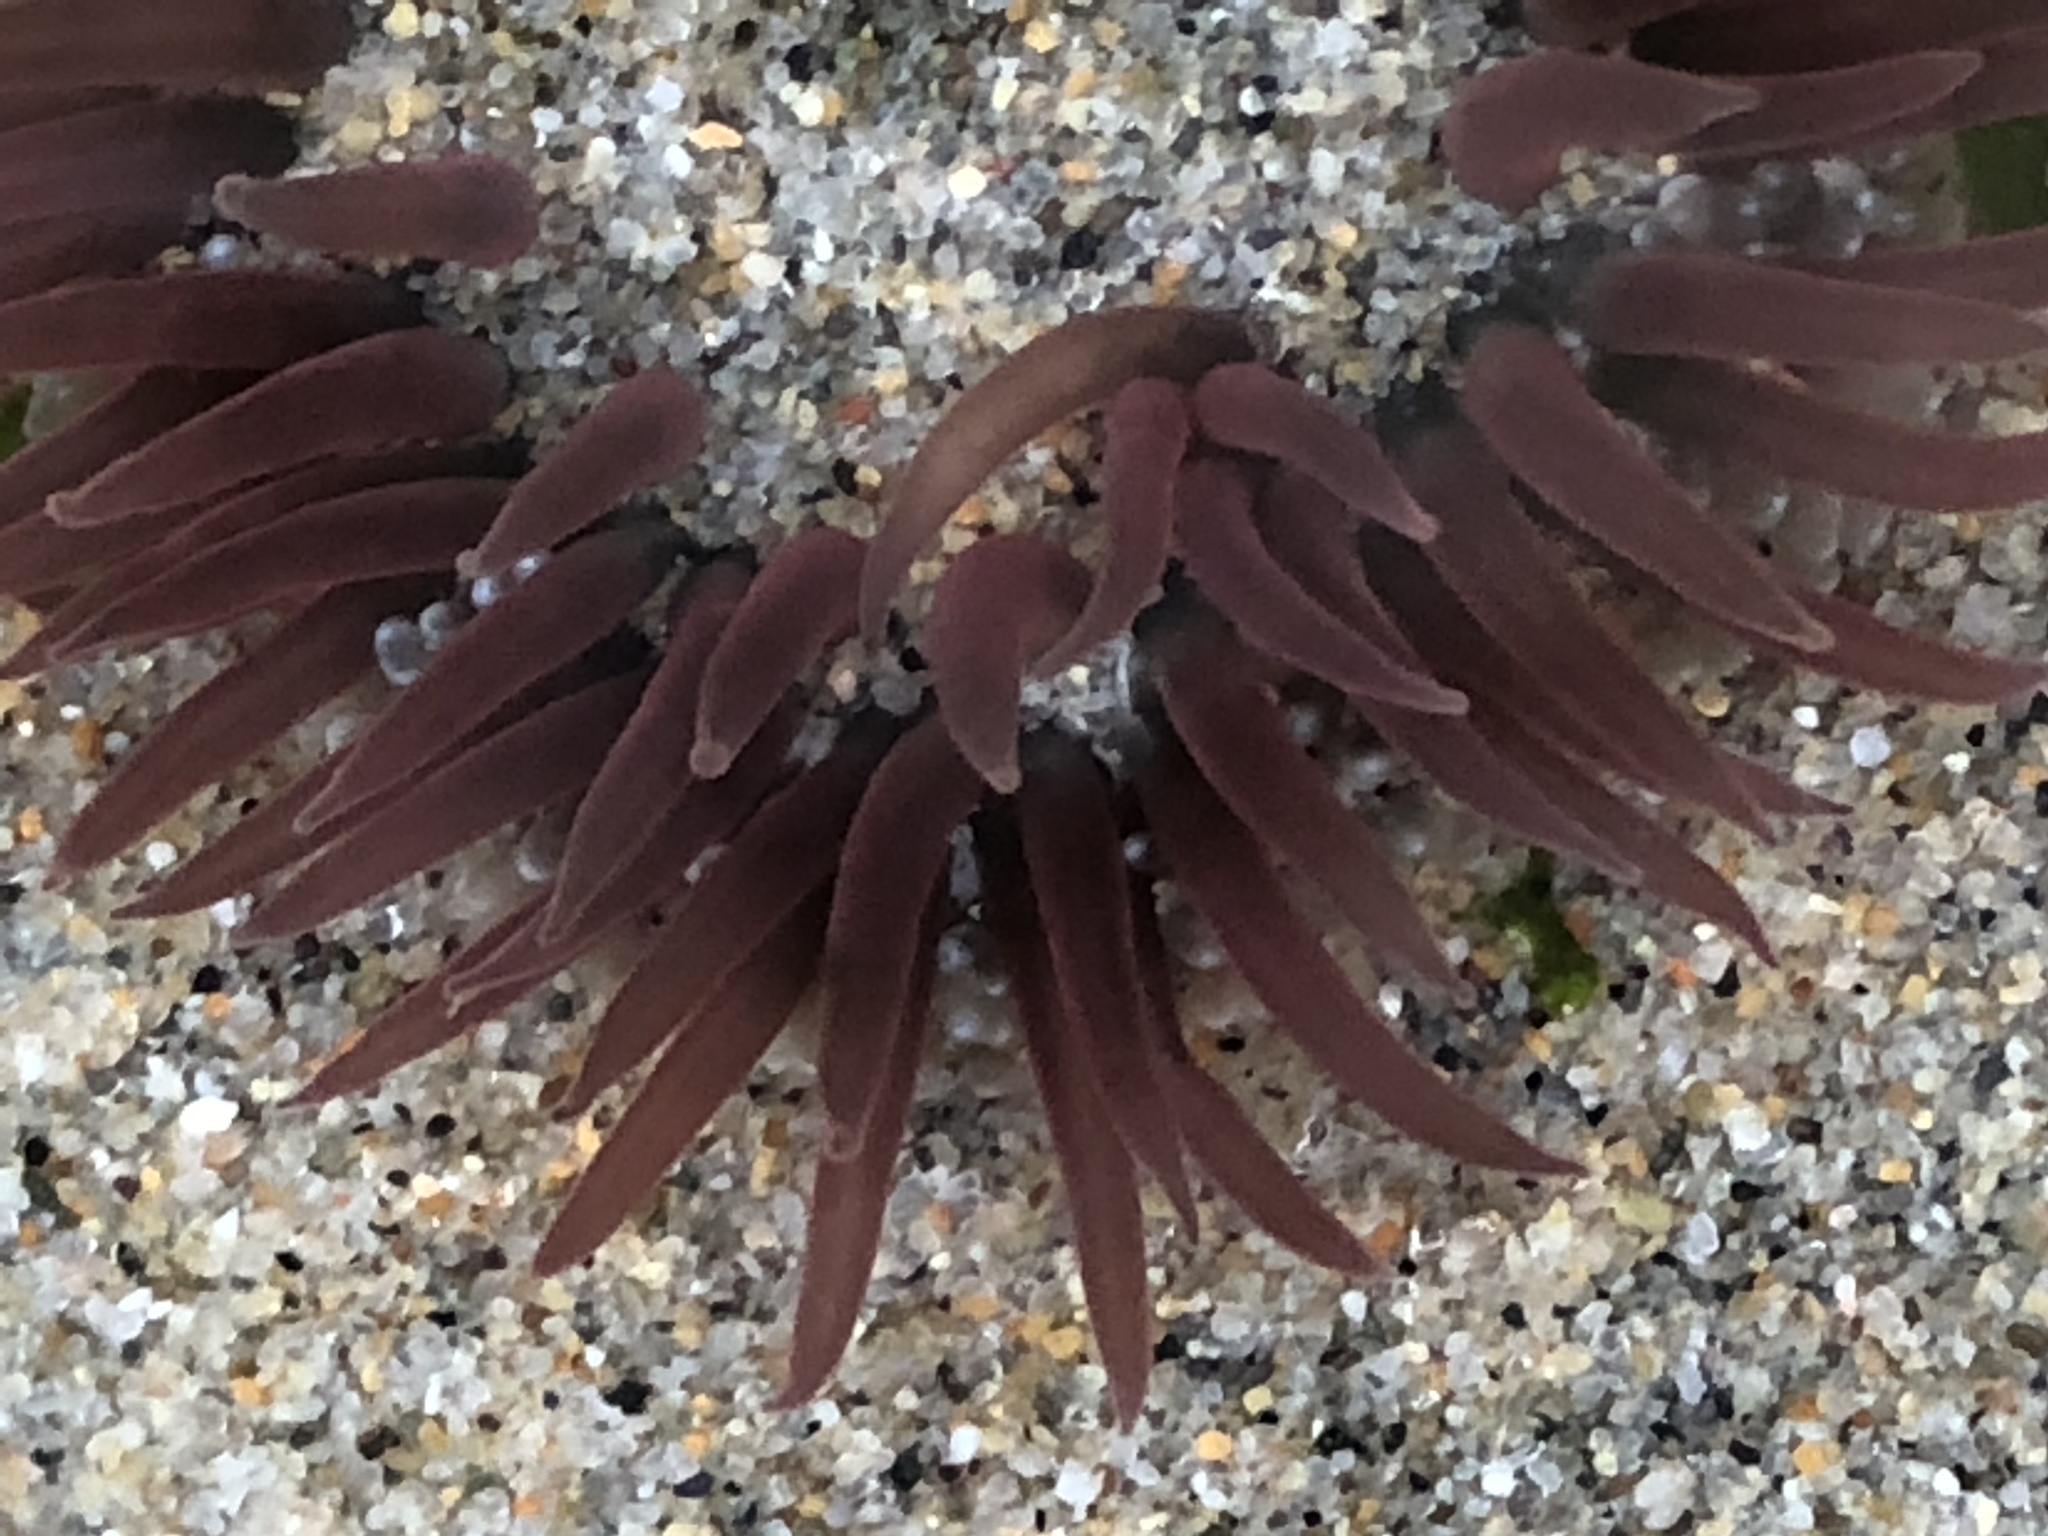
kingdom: Animalia
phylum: Cnidaria
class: Anthozoa
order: Actiniaria
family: Actiniidae
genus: Anthopleura
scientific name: Anthopleura artemisia
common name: Buried sea anemone
